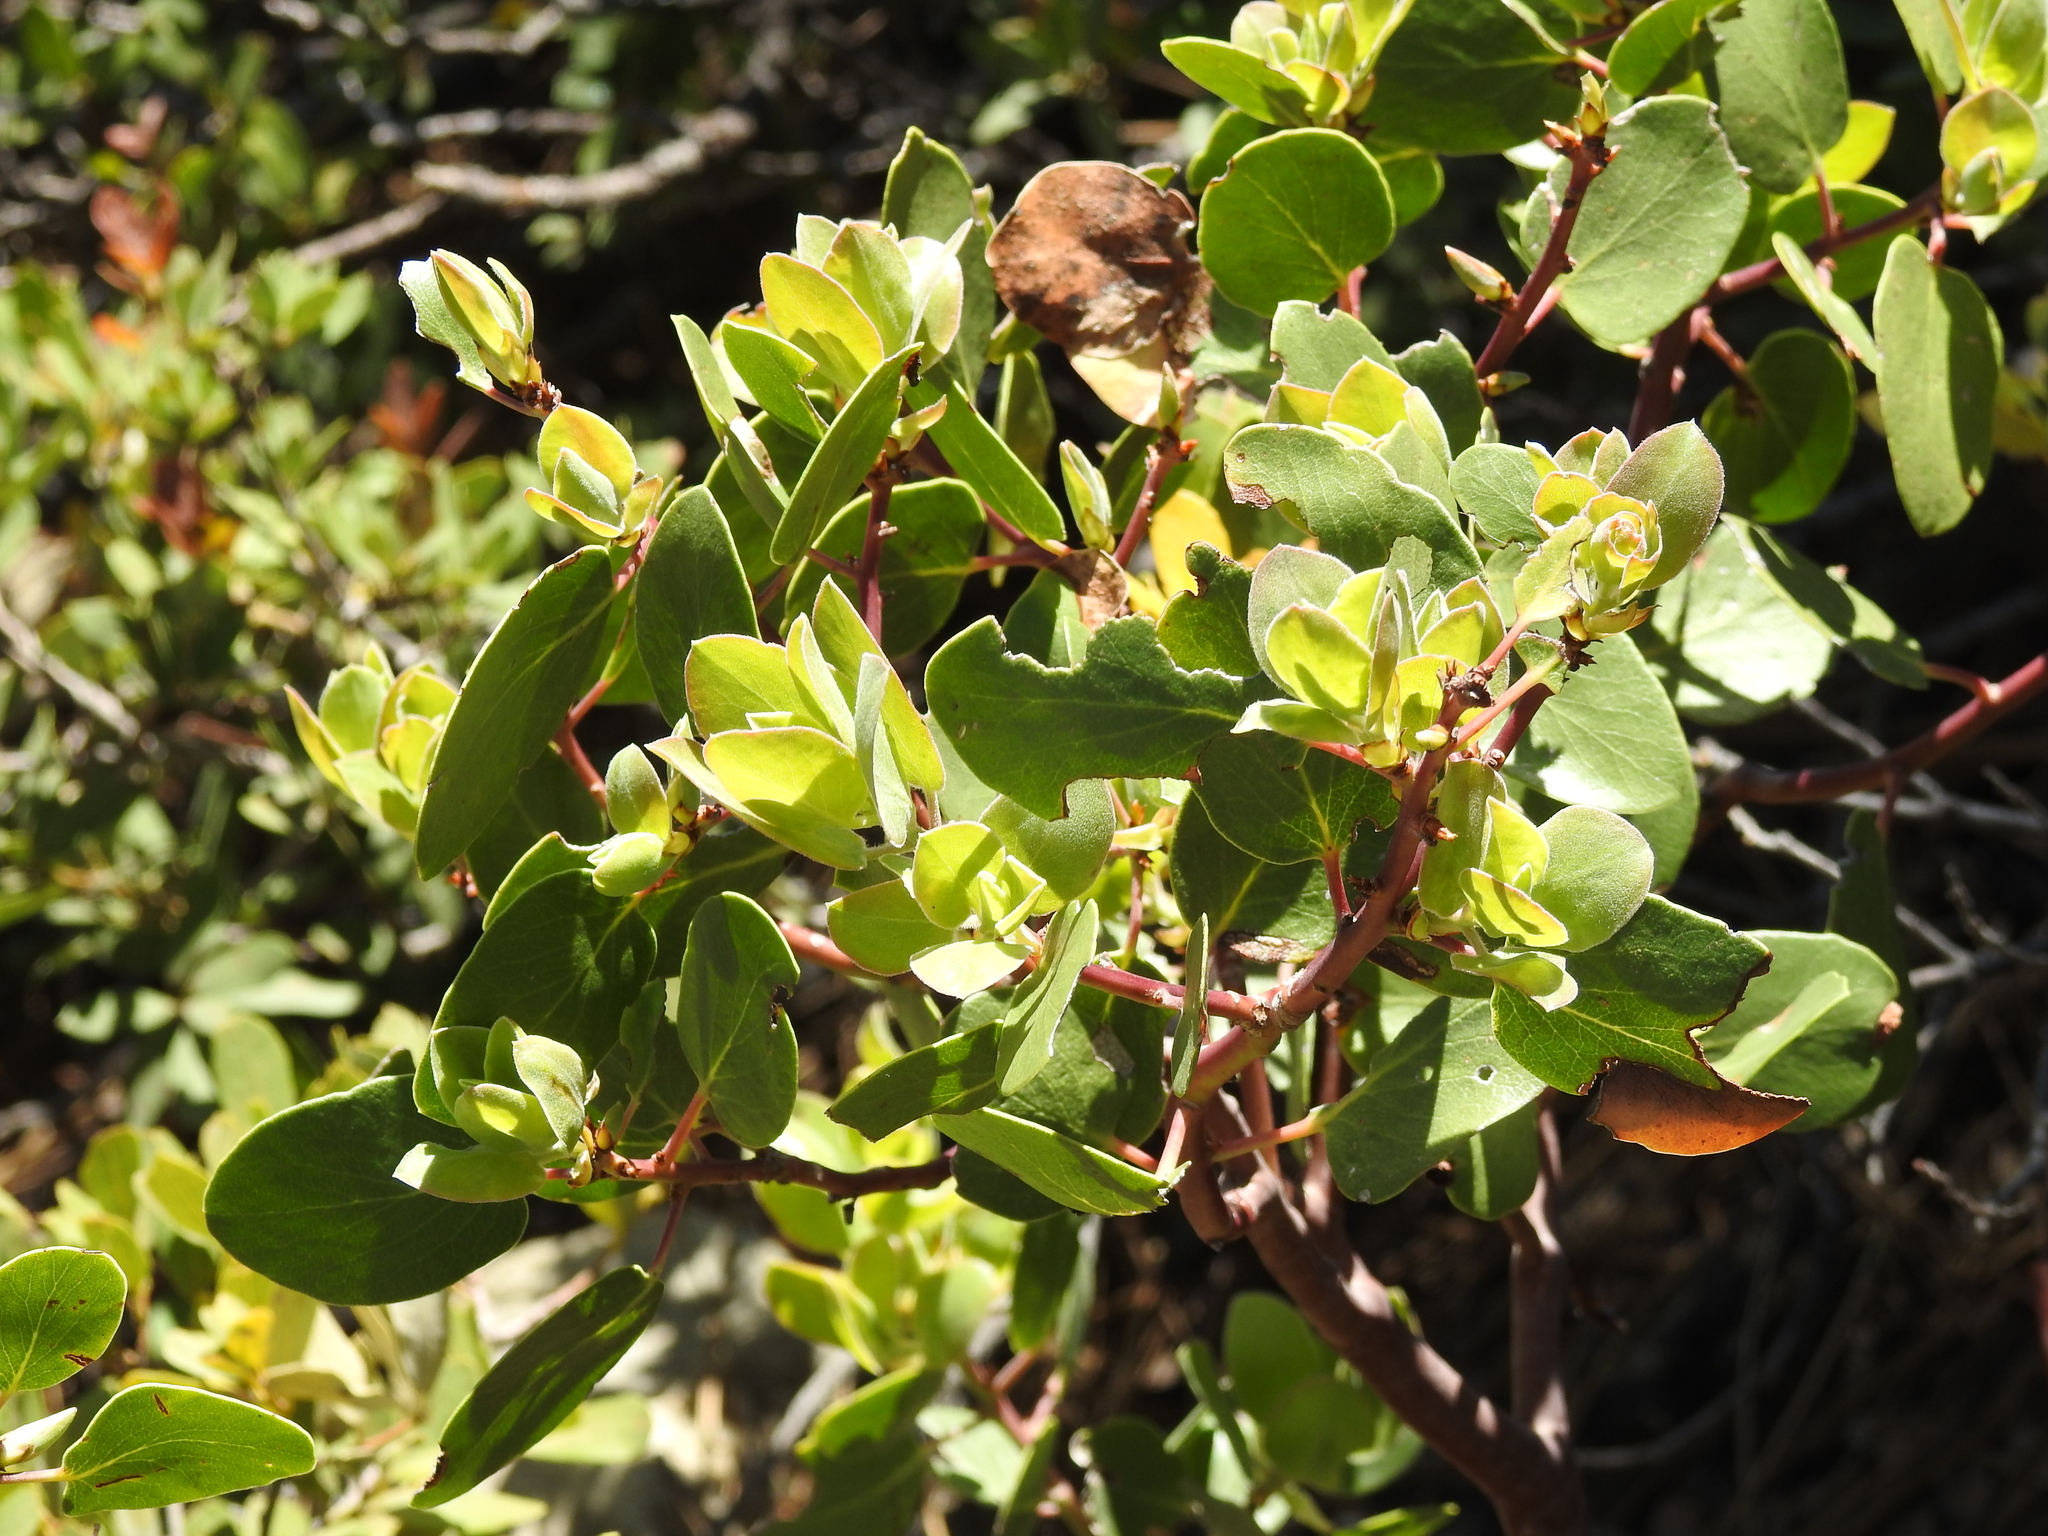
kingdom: Plantae
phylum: Tracheophyta
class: Magnoliopsida
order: Ericales
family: Ericaceae
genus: Arctostaphylos
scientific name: Arctostaphylos patula
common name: Green-leaf manzanita
